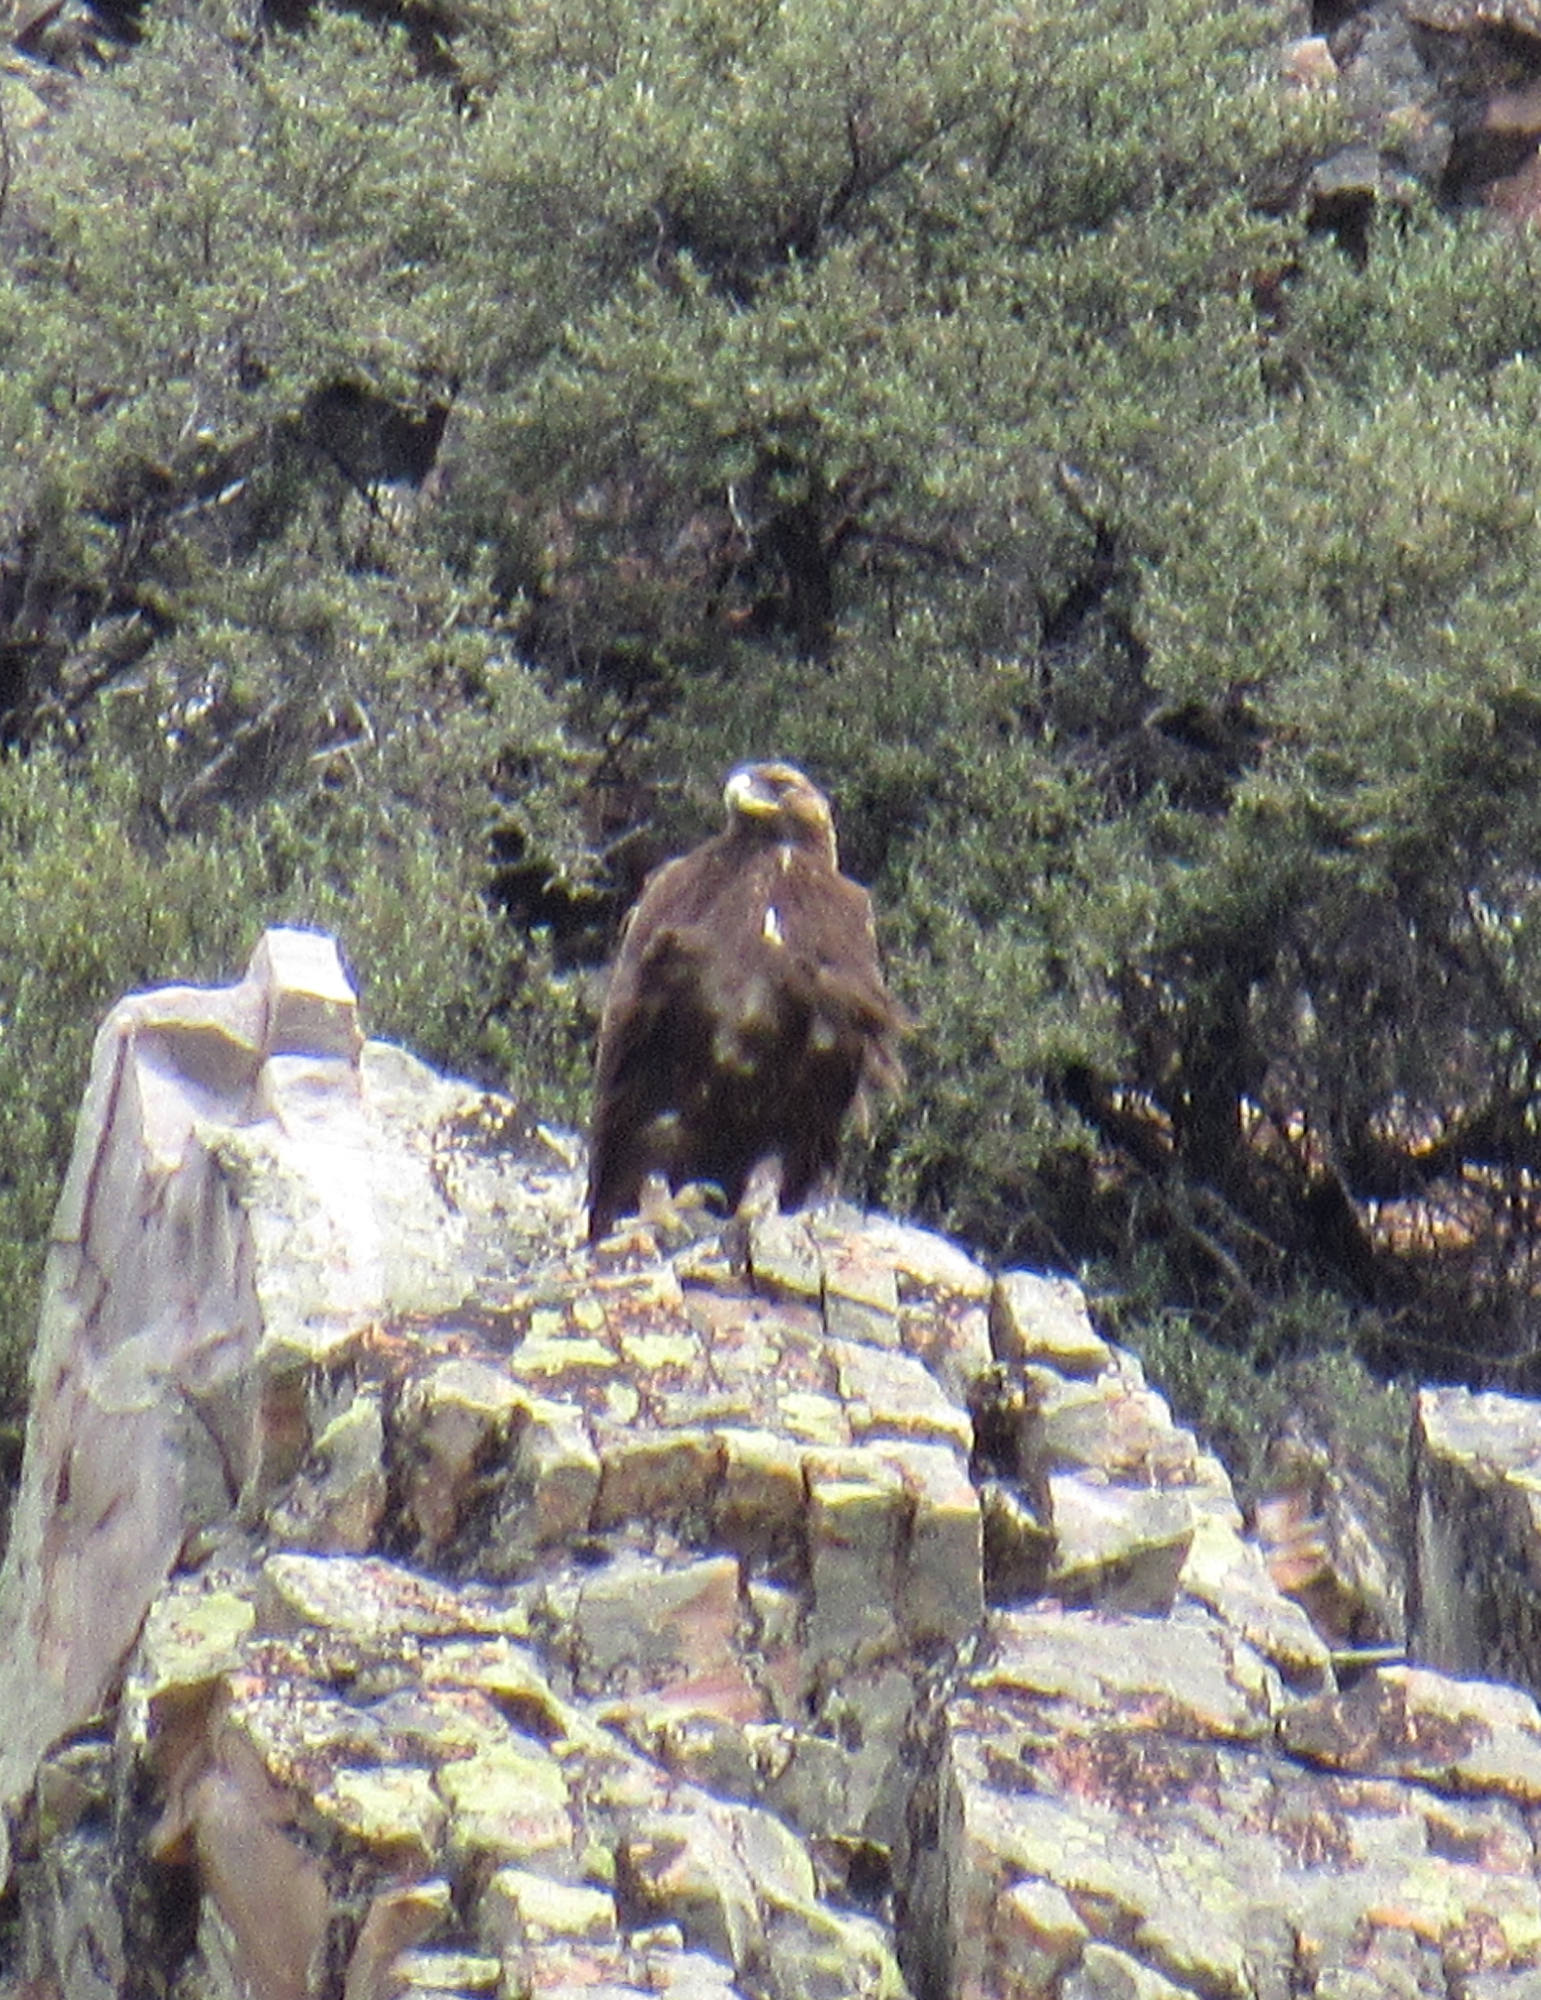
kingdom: Animalia
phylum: Chordata
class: Aves
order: Accipitriformes
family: Accipitridae
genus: Aquila
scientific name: Aquila chrysaetos
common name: Golden eagle
